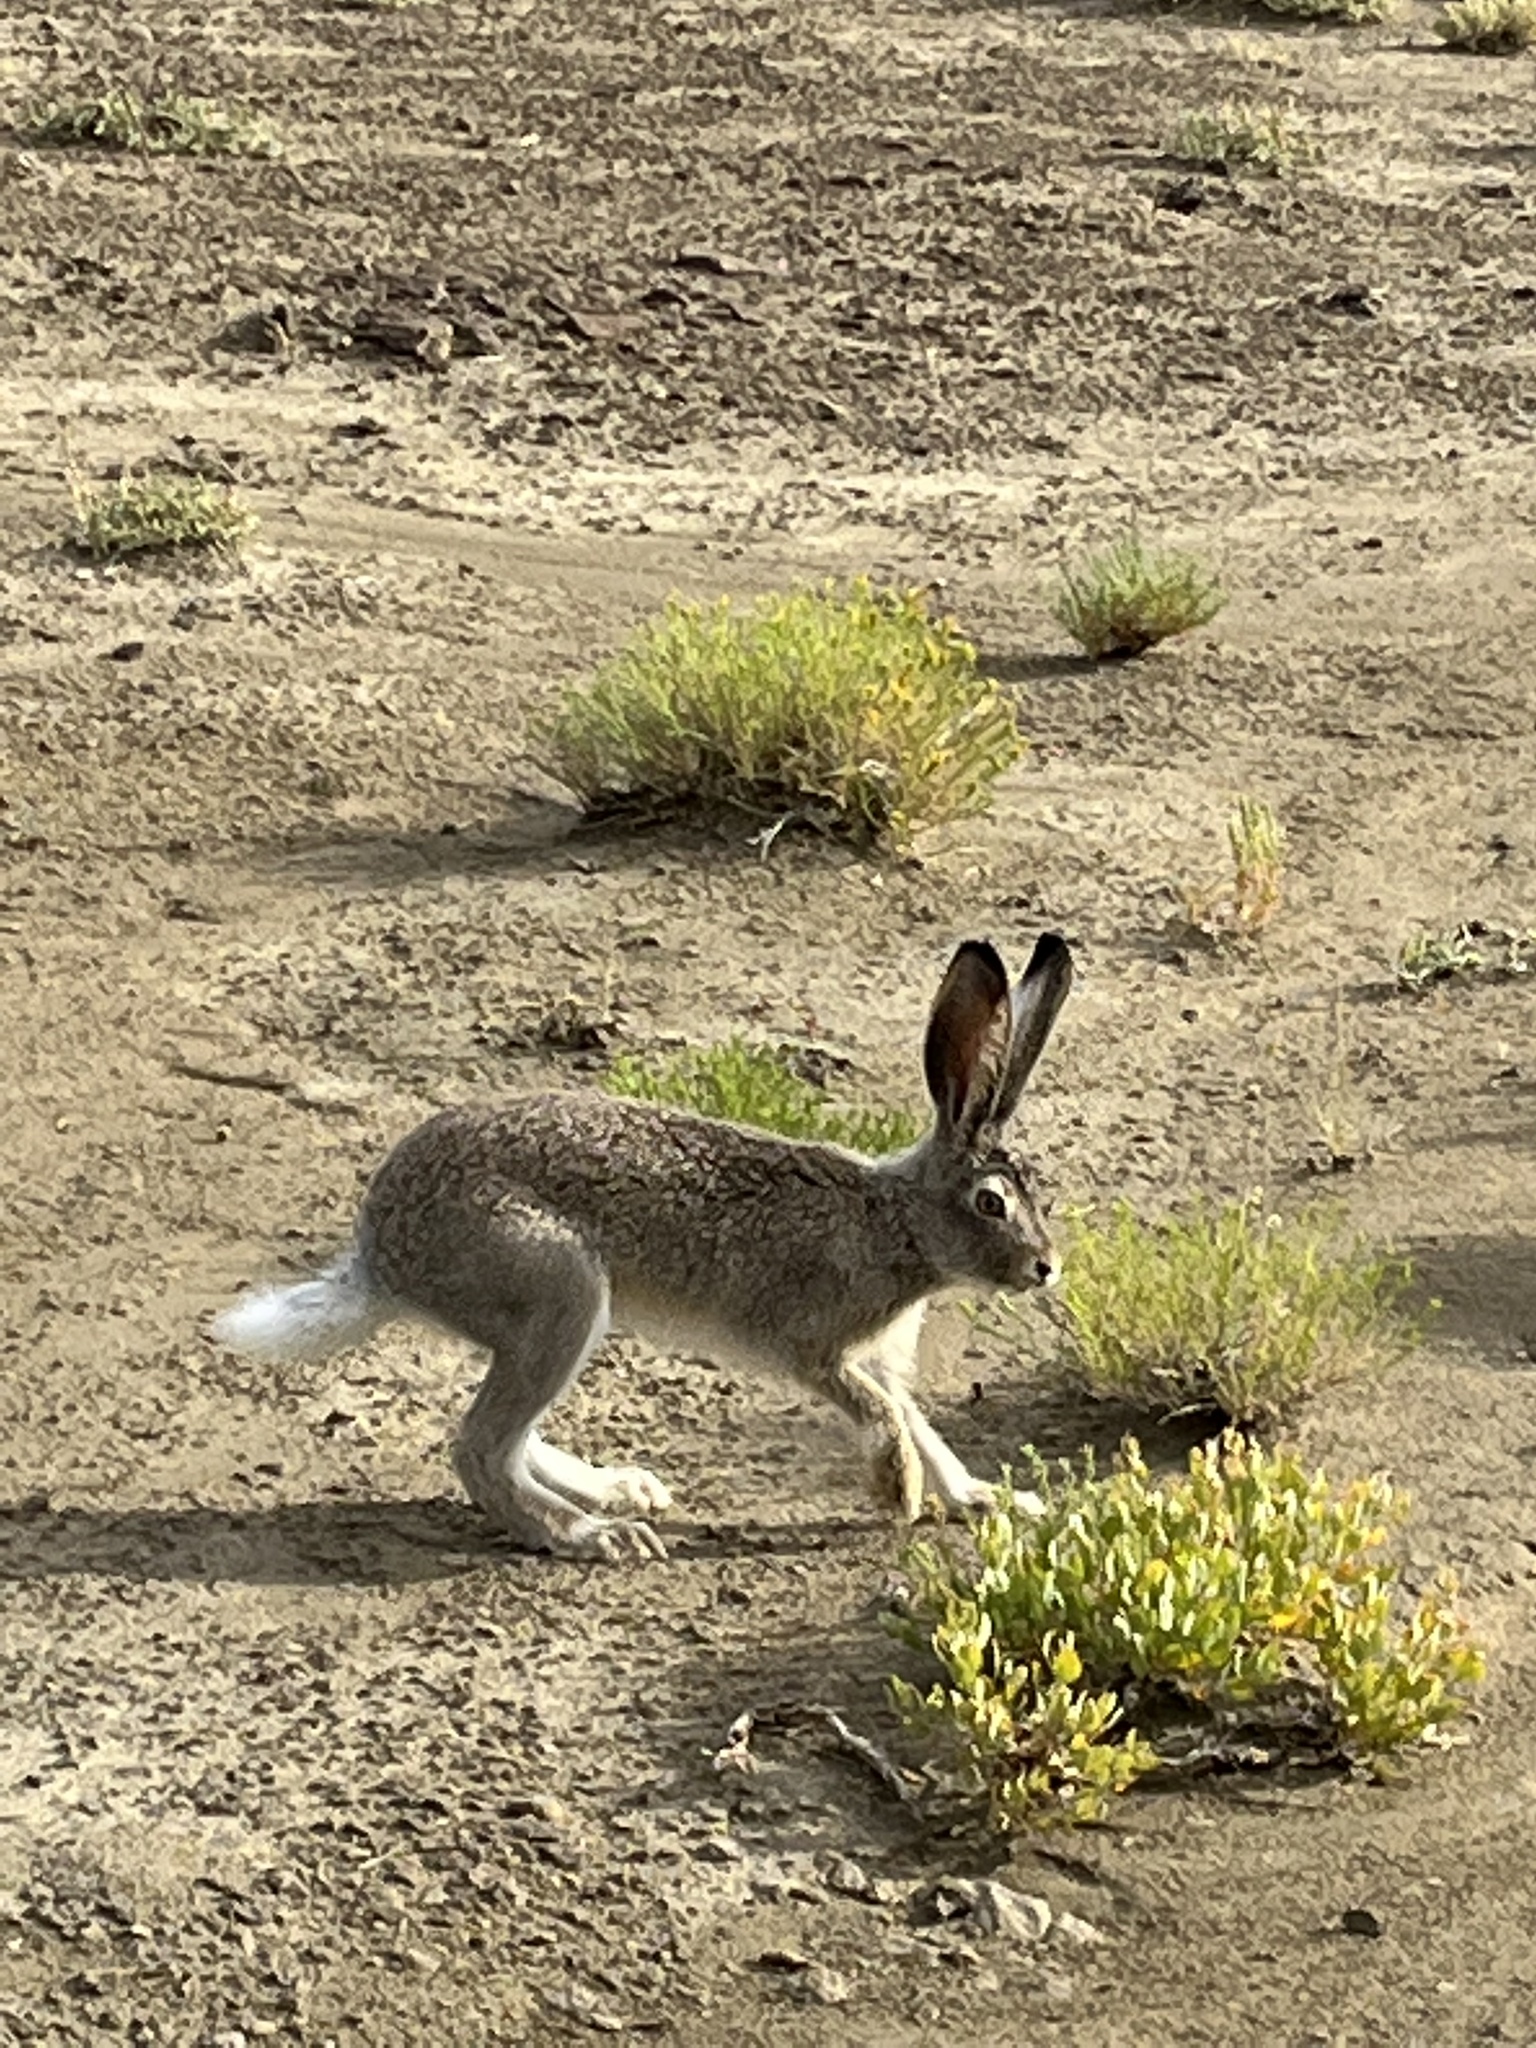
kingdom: Animalia
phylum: Chordata
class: Mammalia
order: Lagomorpha
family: Leporidae
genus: Lepus
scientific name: Lepus townsendii
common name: White-tailed jackrabbit
